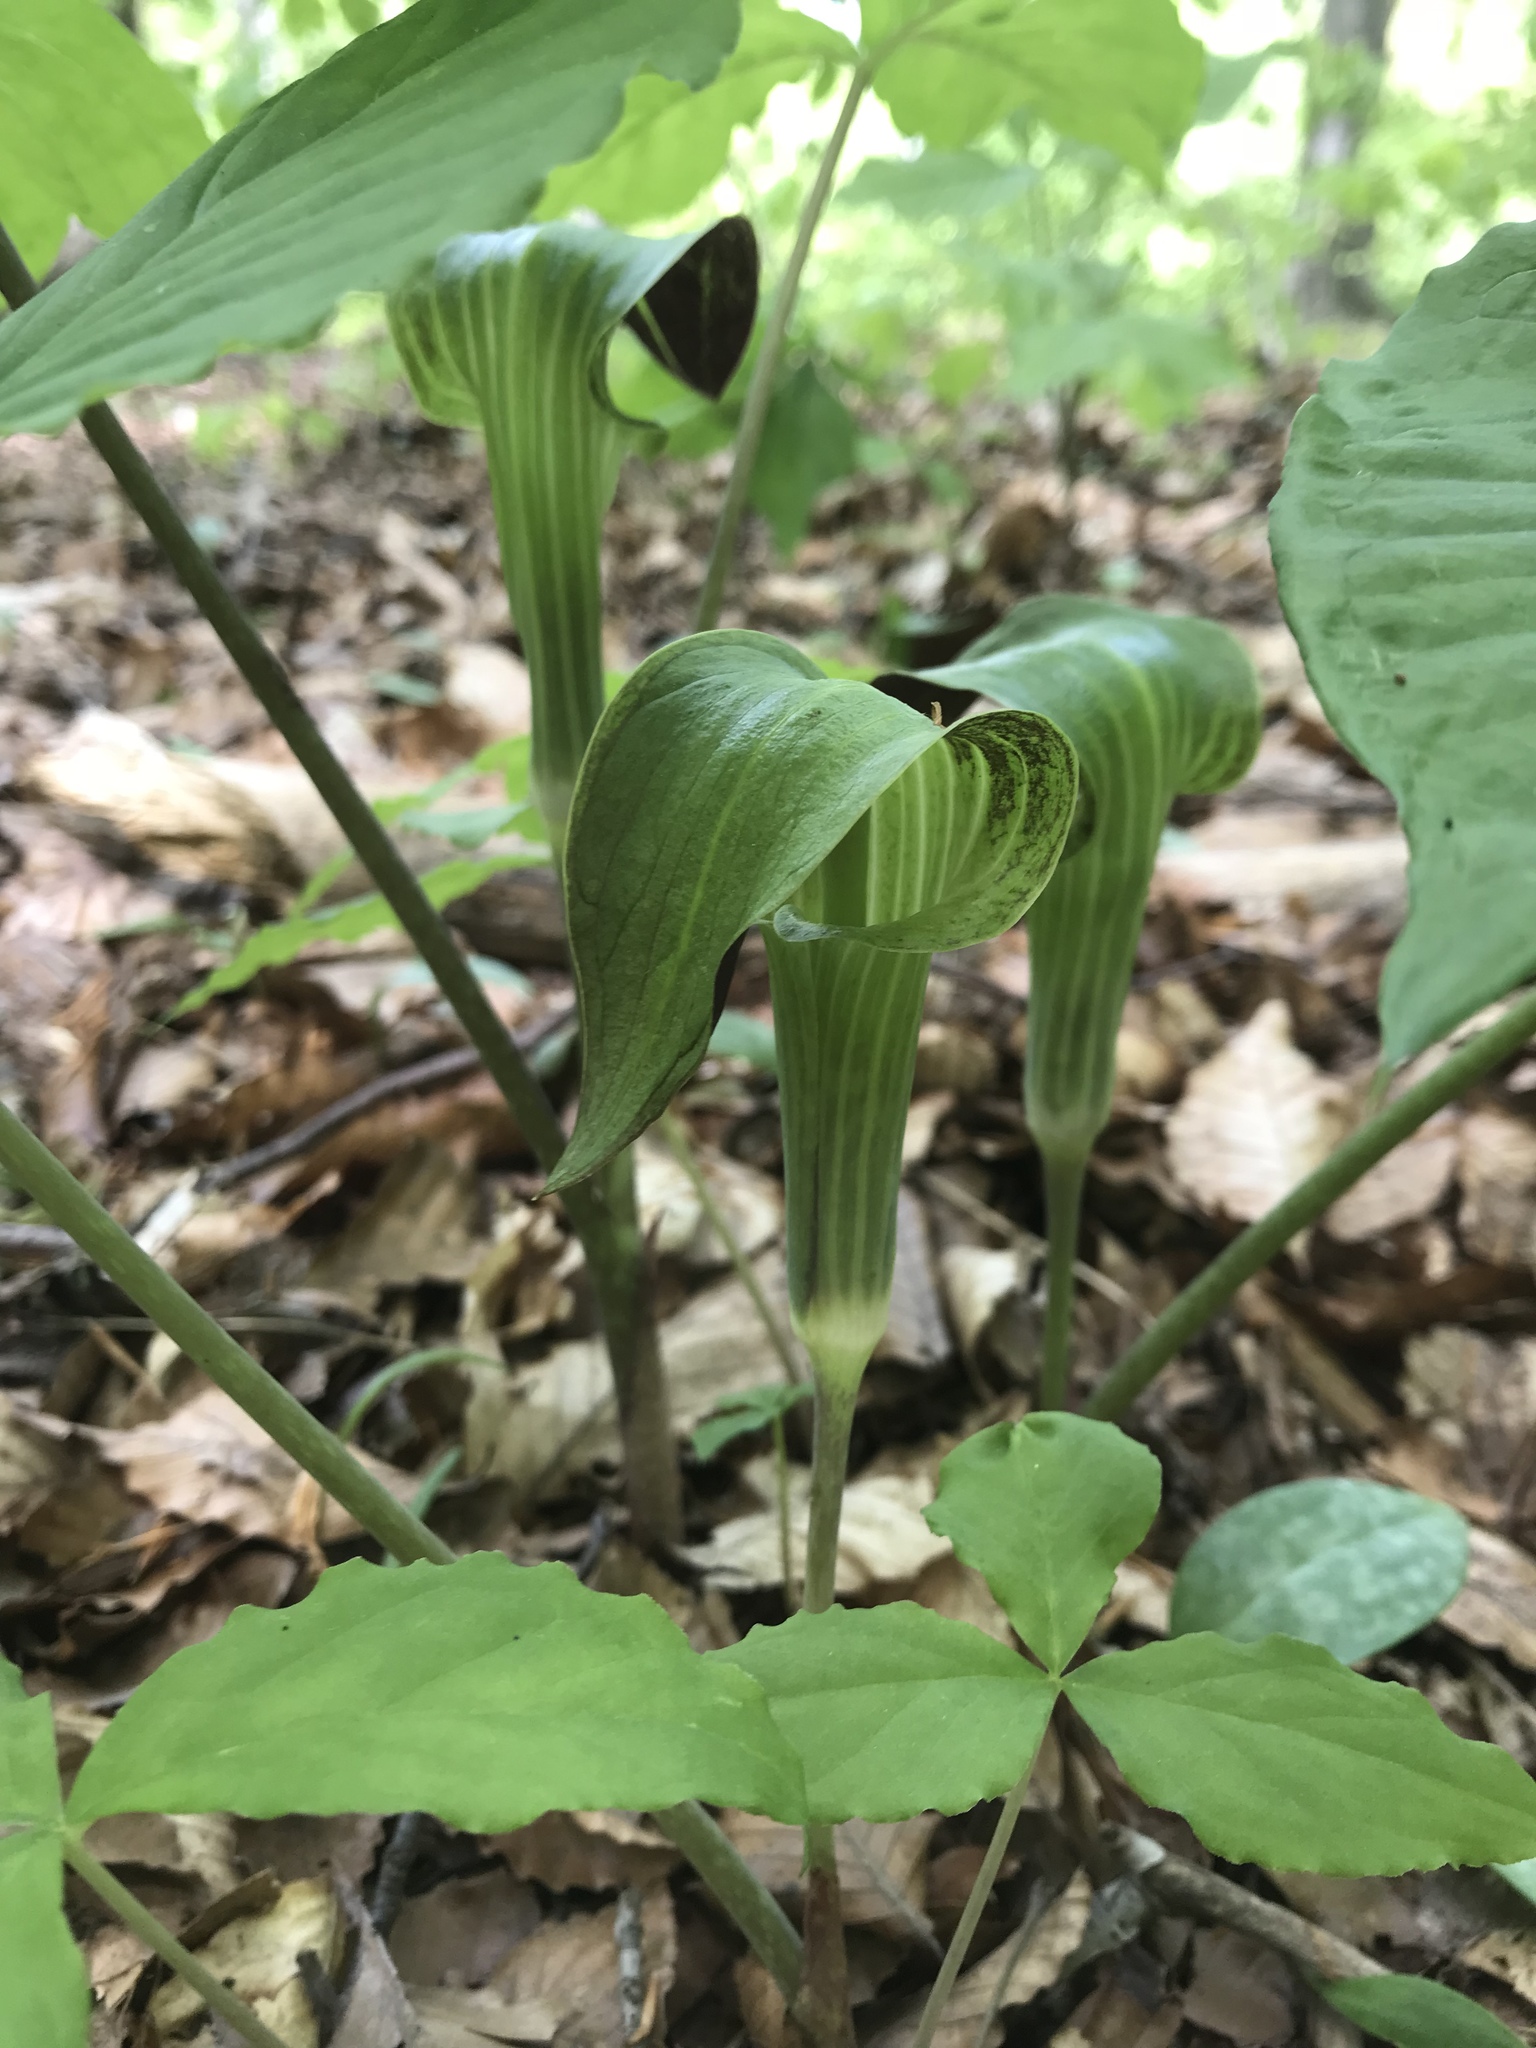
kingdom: Plantae
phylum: Tracheophyta
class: Liliopsida
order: Alismatales
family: Araceae
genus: Arisaema
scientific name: Arisaema triphyllum
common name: Jack-in-the-pulpit
